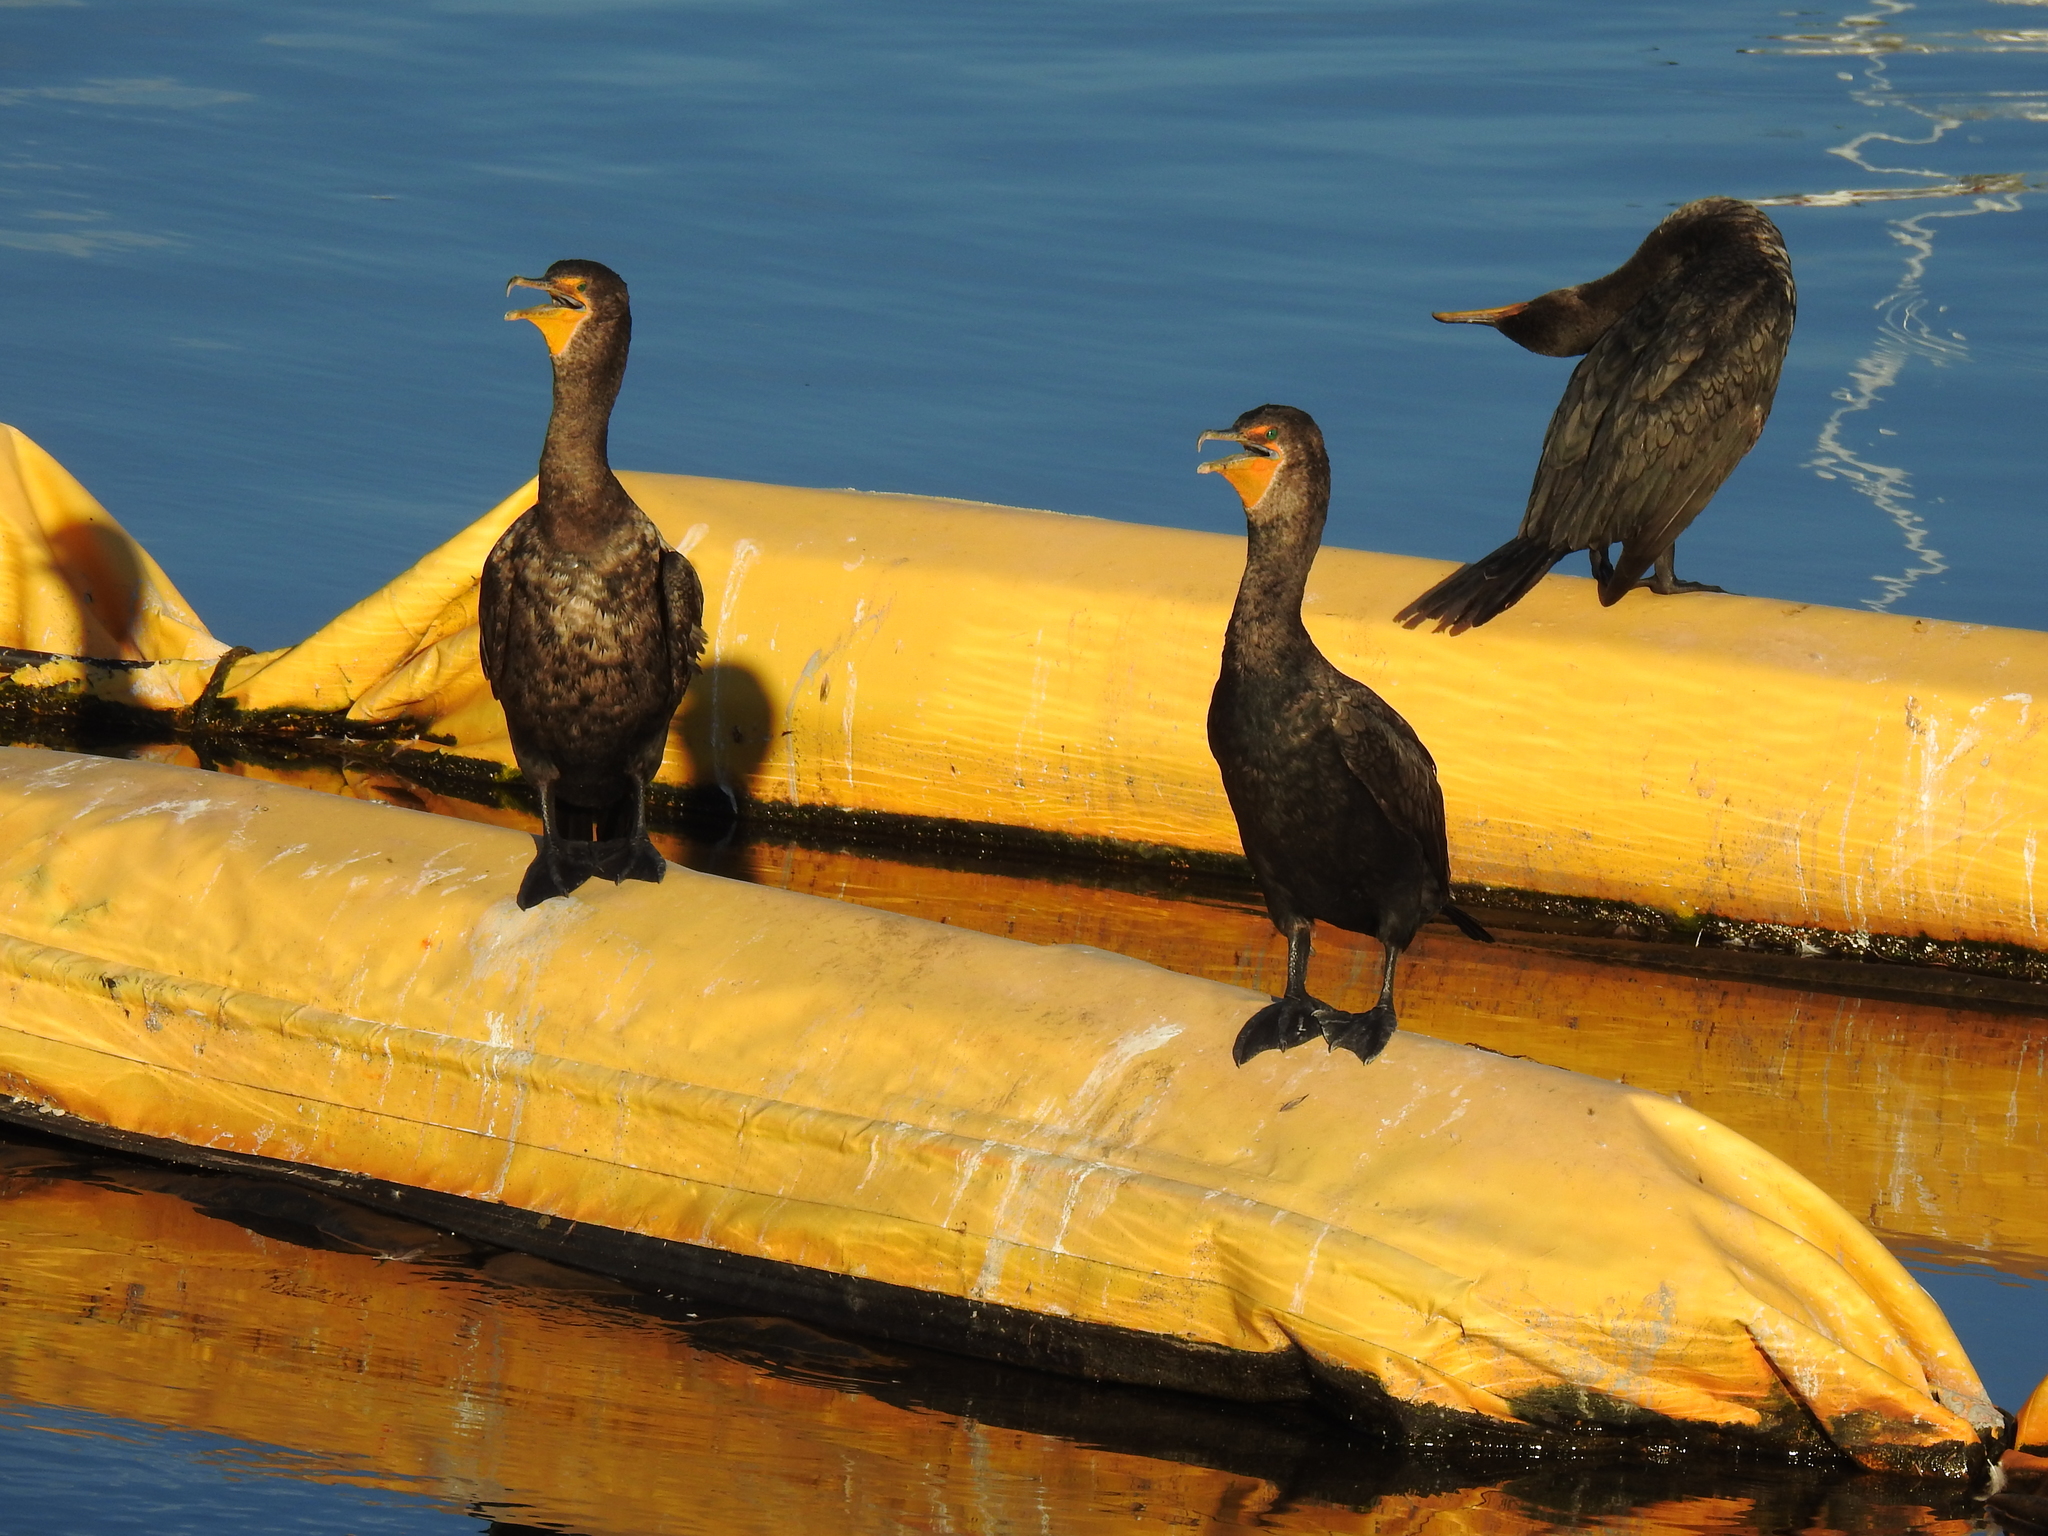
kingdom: Animalia
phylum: Chordata
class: Aves
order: Suliformes
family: Phalacrocoracidae
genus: Phalacrocorax
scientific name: Phalacrocorax auritus
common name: Double-crested cormorant
